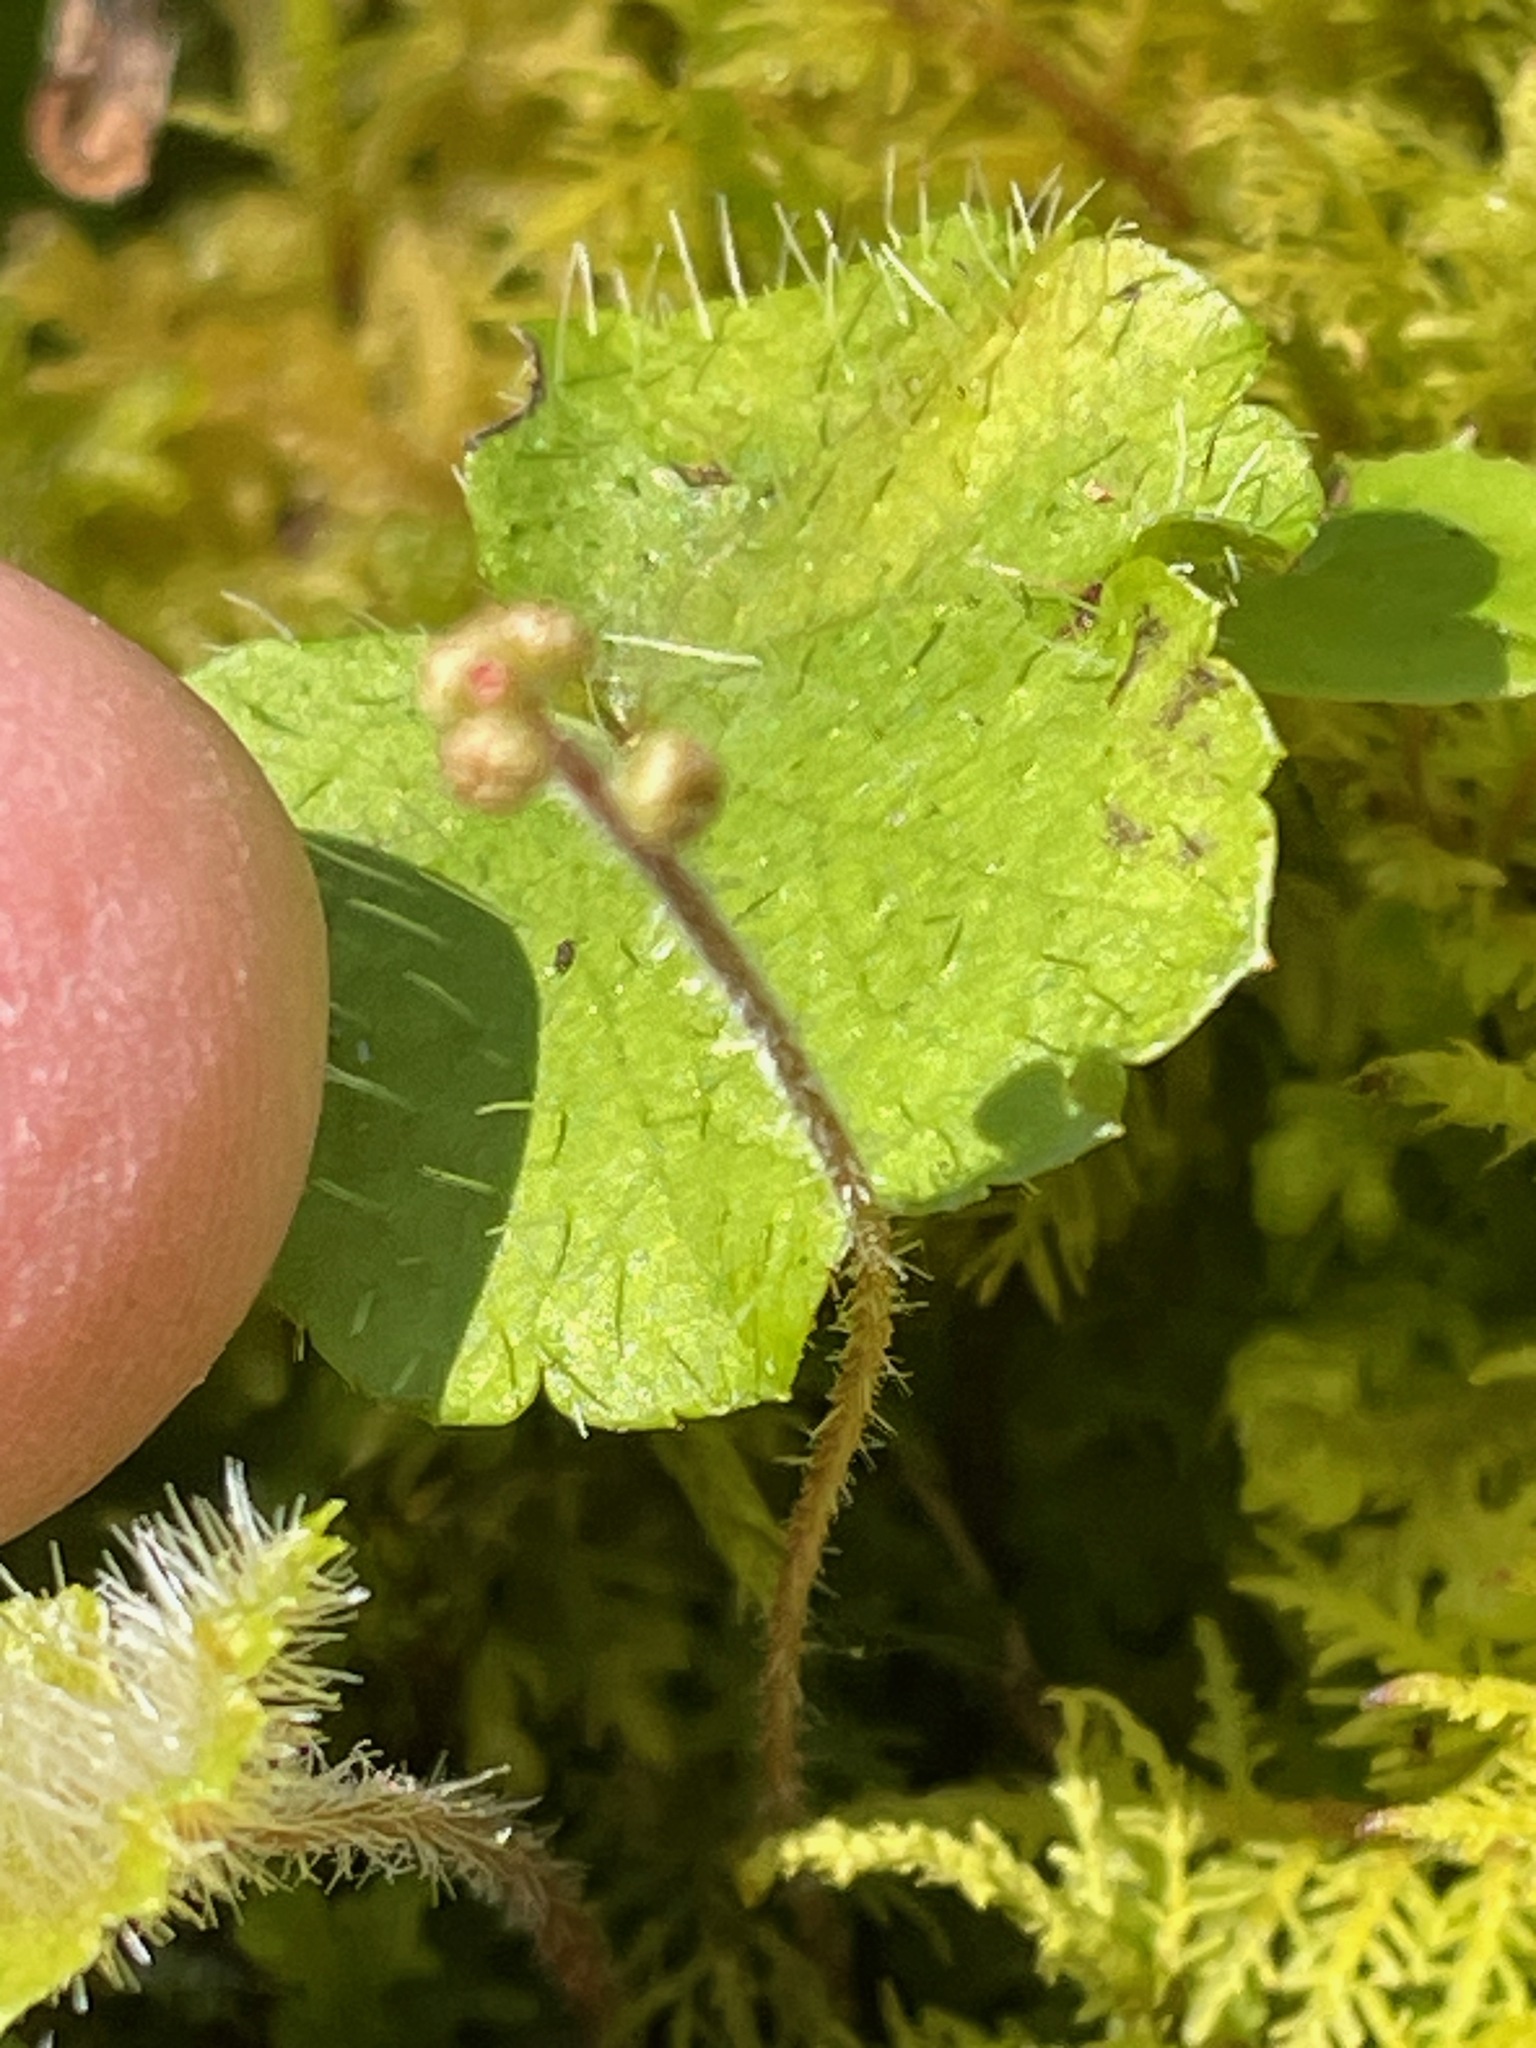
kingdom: Plantae
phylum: Tracheophyta
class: Magnoliopsida
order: Saxifragales
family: Saxifragaceae
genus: Mitella
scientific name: Mitella nuda
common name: Bare-stemmed bishop's-cap
